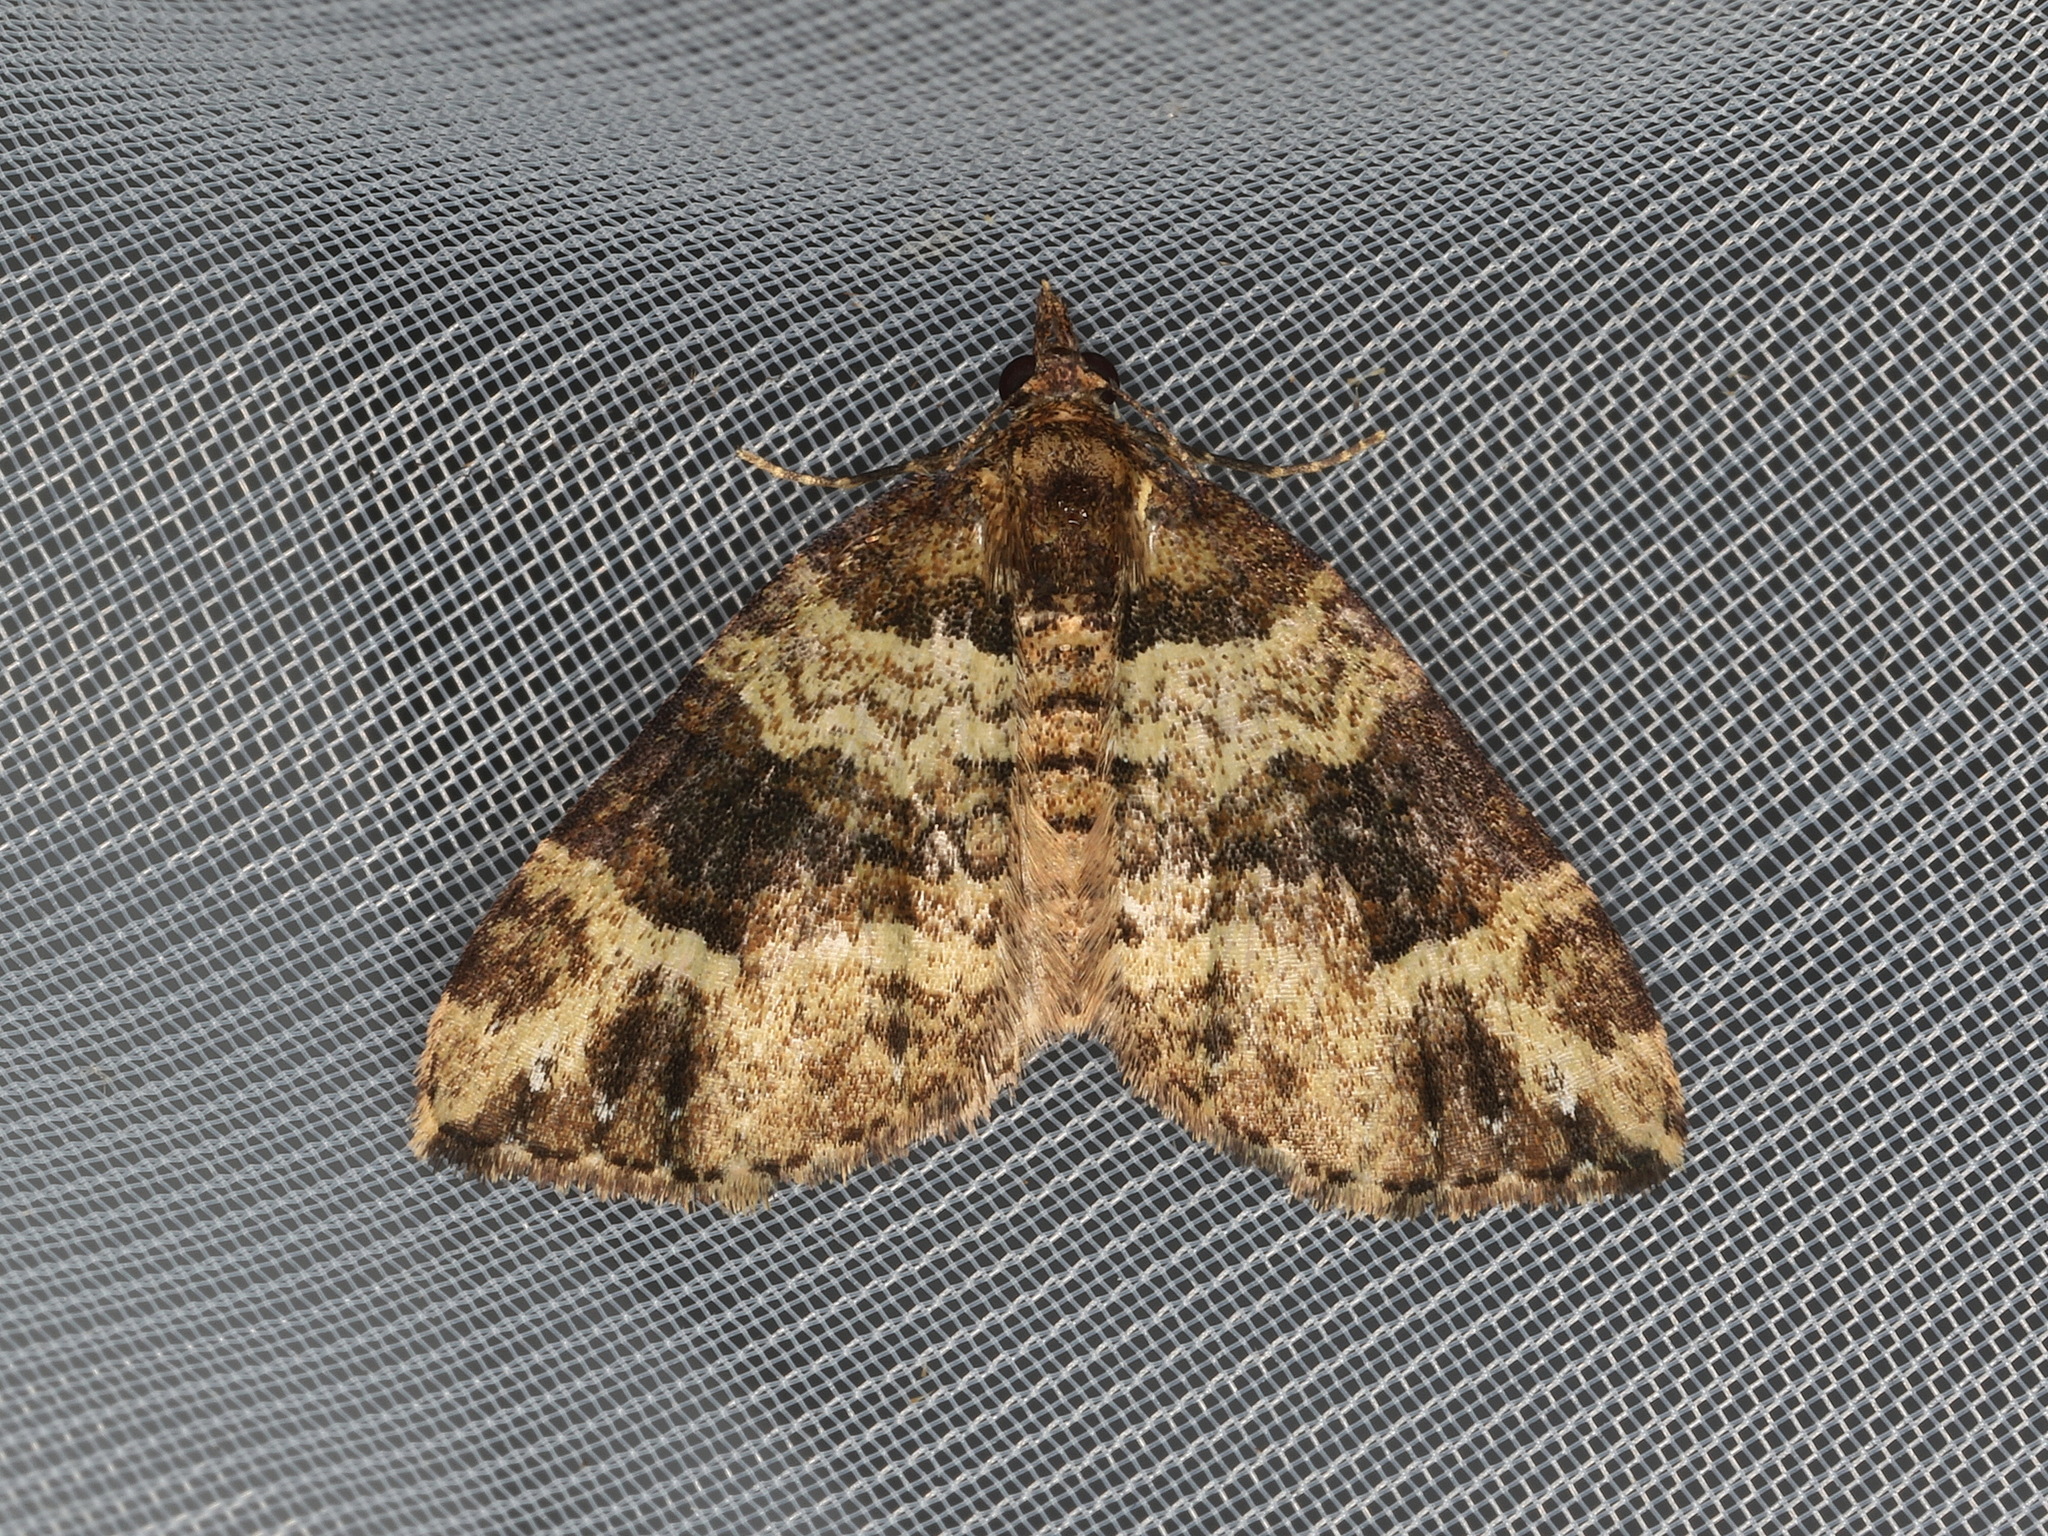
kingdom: Animalia
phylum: Arthropoda
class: Insecta
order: Lepidoptera
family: Geometridae
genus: Chrysolarentia
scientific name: Chrysolarentia pantoea
